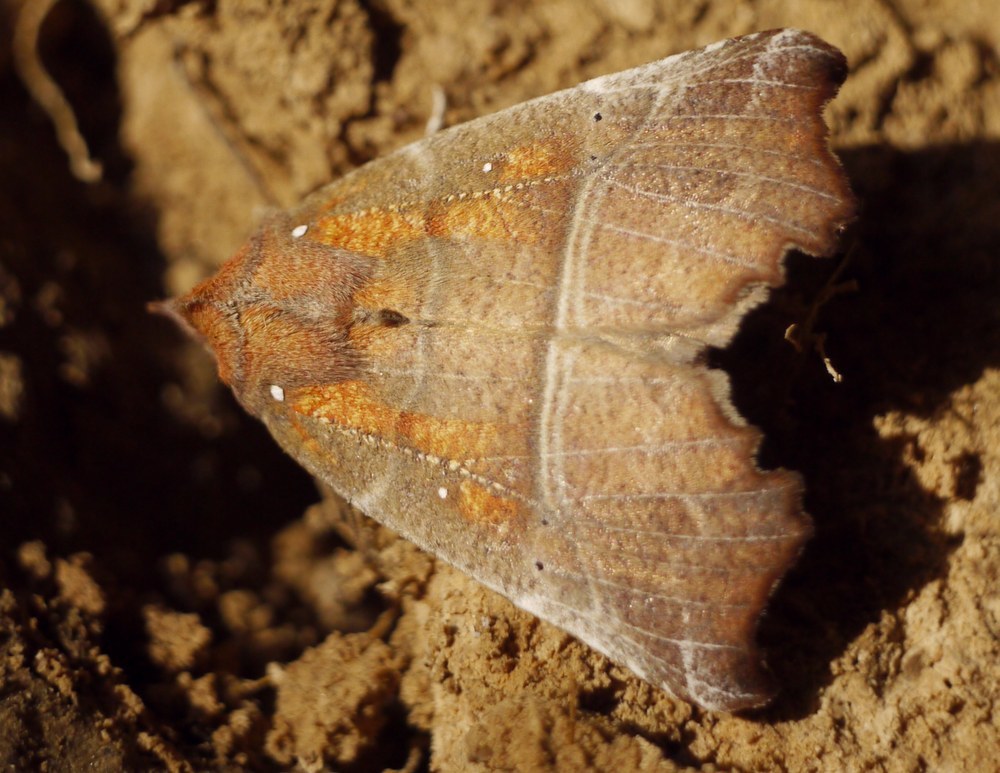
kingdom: Animalia
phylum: Arthropoda
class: Insecta
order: Lepidoptera
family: Erebidae
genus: Scoliopteryx
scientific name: Scoliopteryx libatrix
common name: Herald
